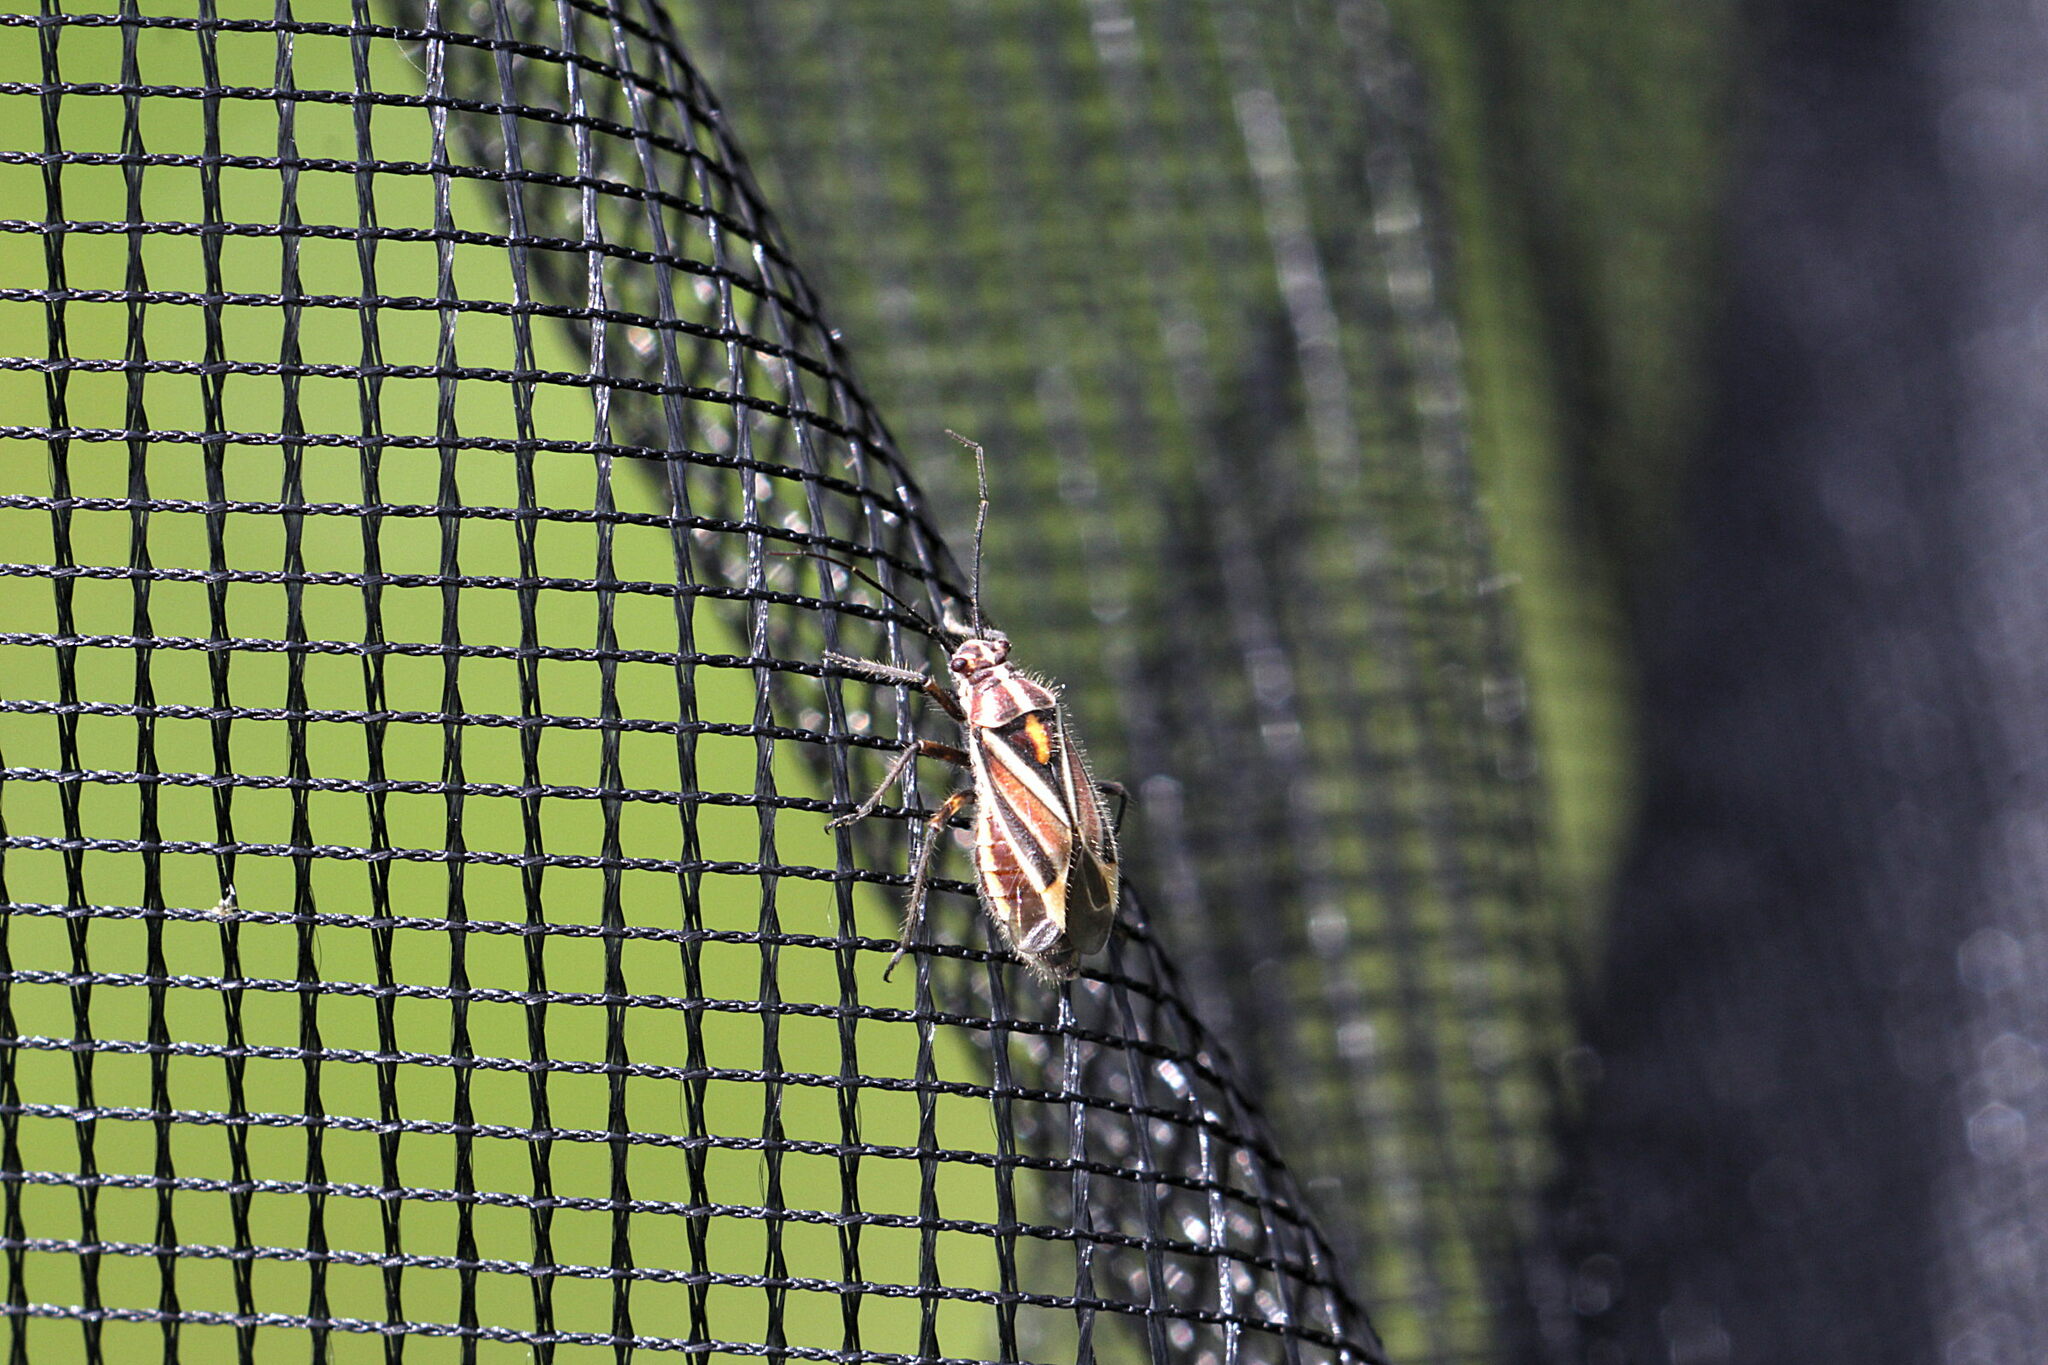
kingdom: Animalia
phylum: Arthropoda
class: Insecta
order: Hemiptera
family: Miridae
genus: Horistus
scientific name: Horistus orientalis
